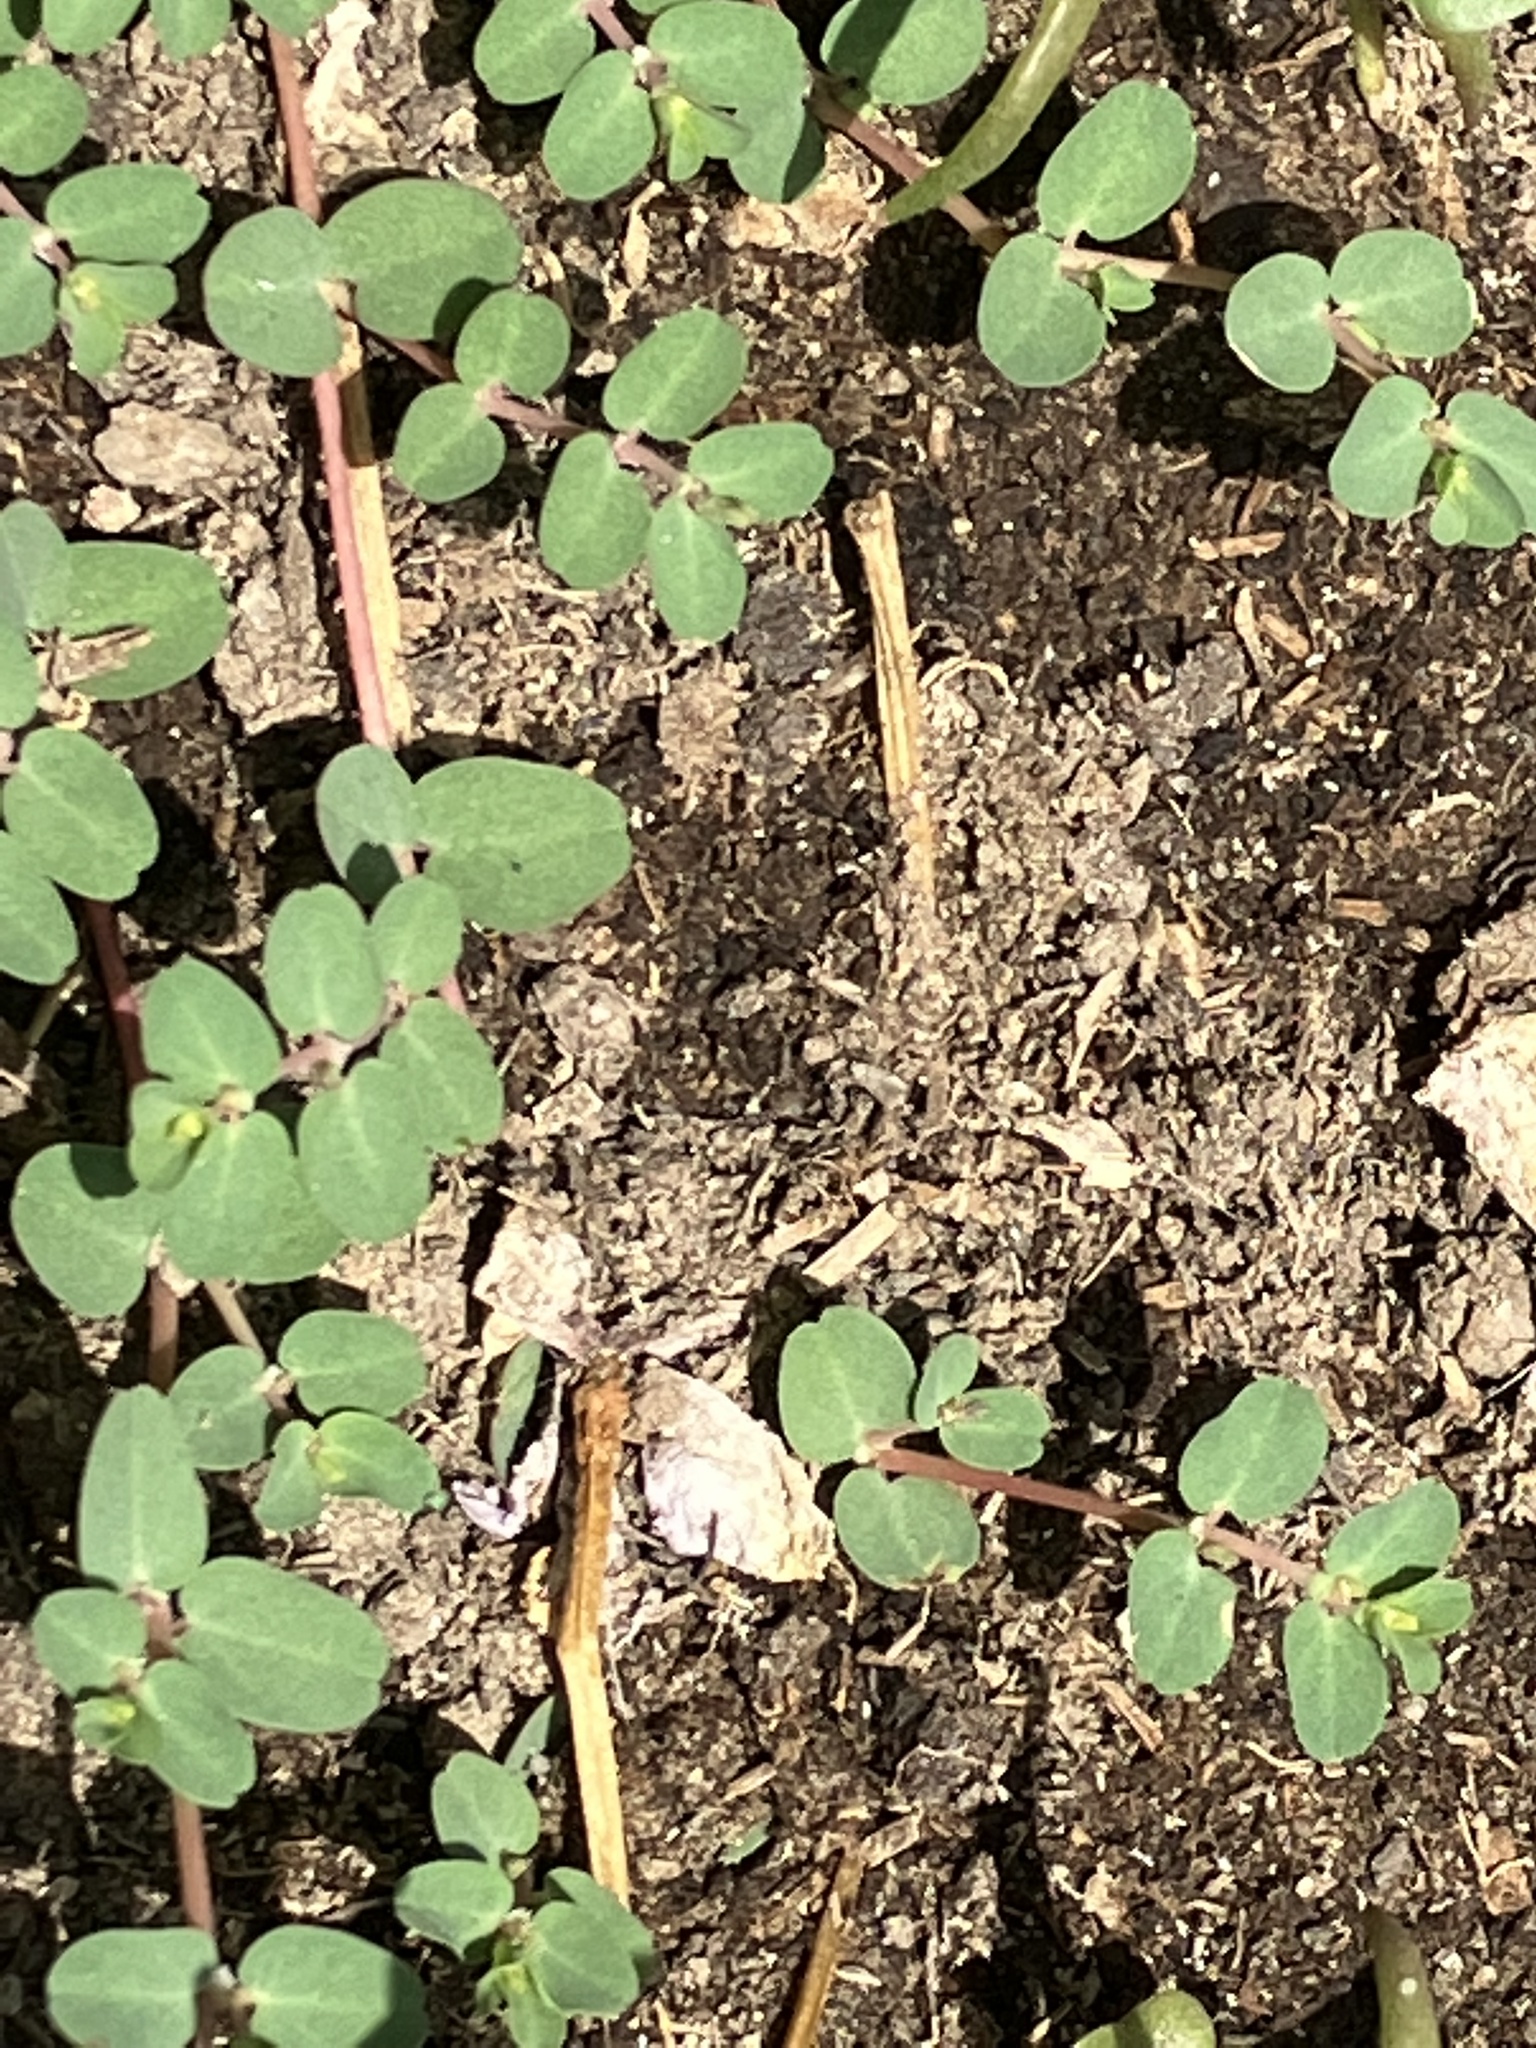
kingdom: Plantae
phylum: Tracheophyta
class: Magnoliopsida
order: Malpighiales
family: Euphorbiaceae
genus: Euphorbia
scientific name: Euphorbia serpens
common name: Matted sandmat
